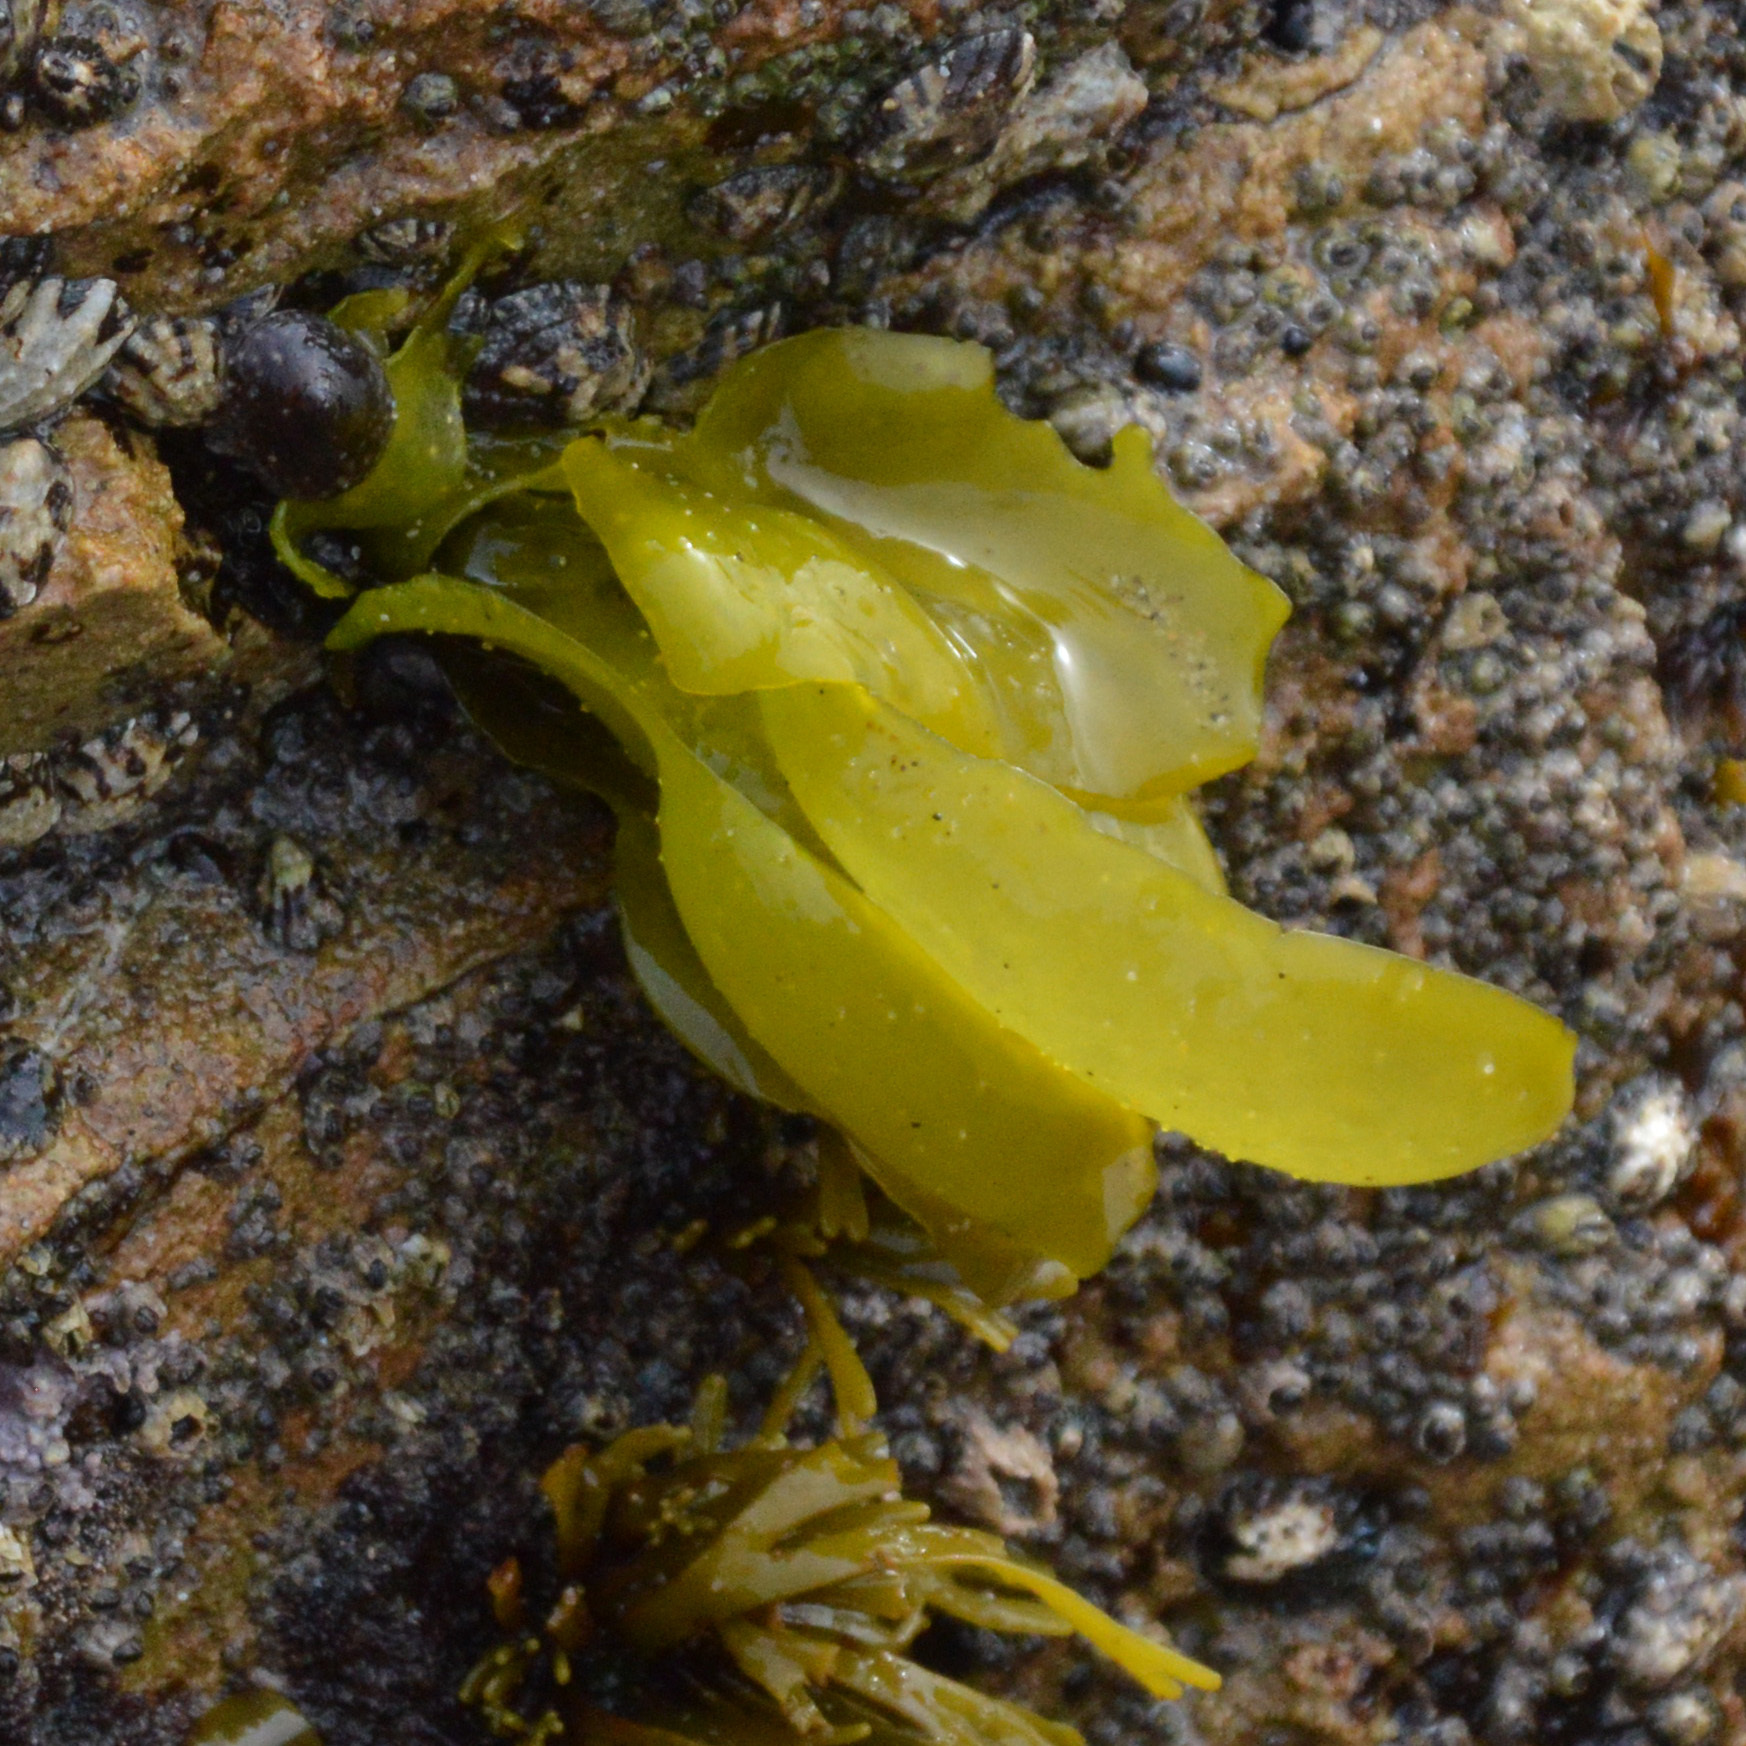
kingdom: Plantae
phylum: Rhodophyta
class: Florideophyceae
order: Gigartinales
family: Gigartinaceae
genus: Mazzaella
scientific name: Mazzaella flaccida
